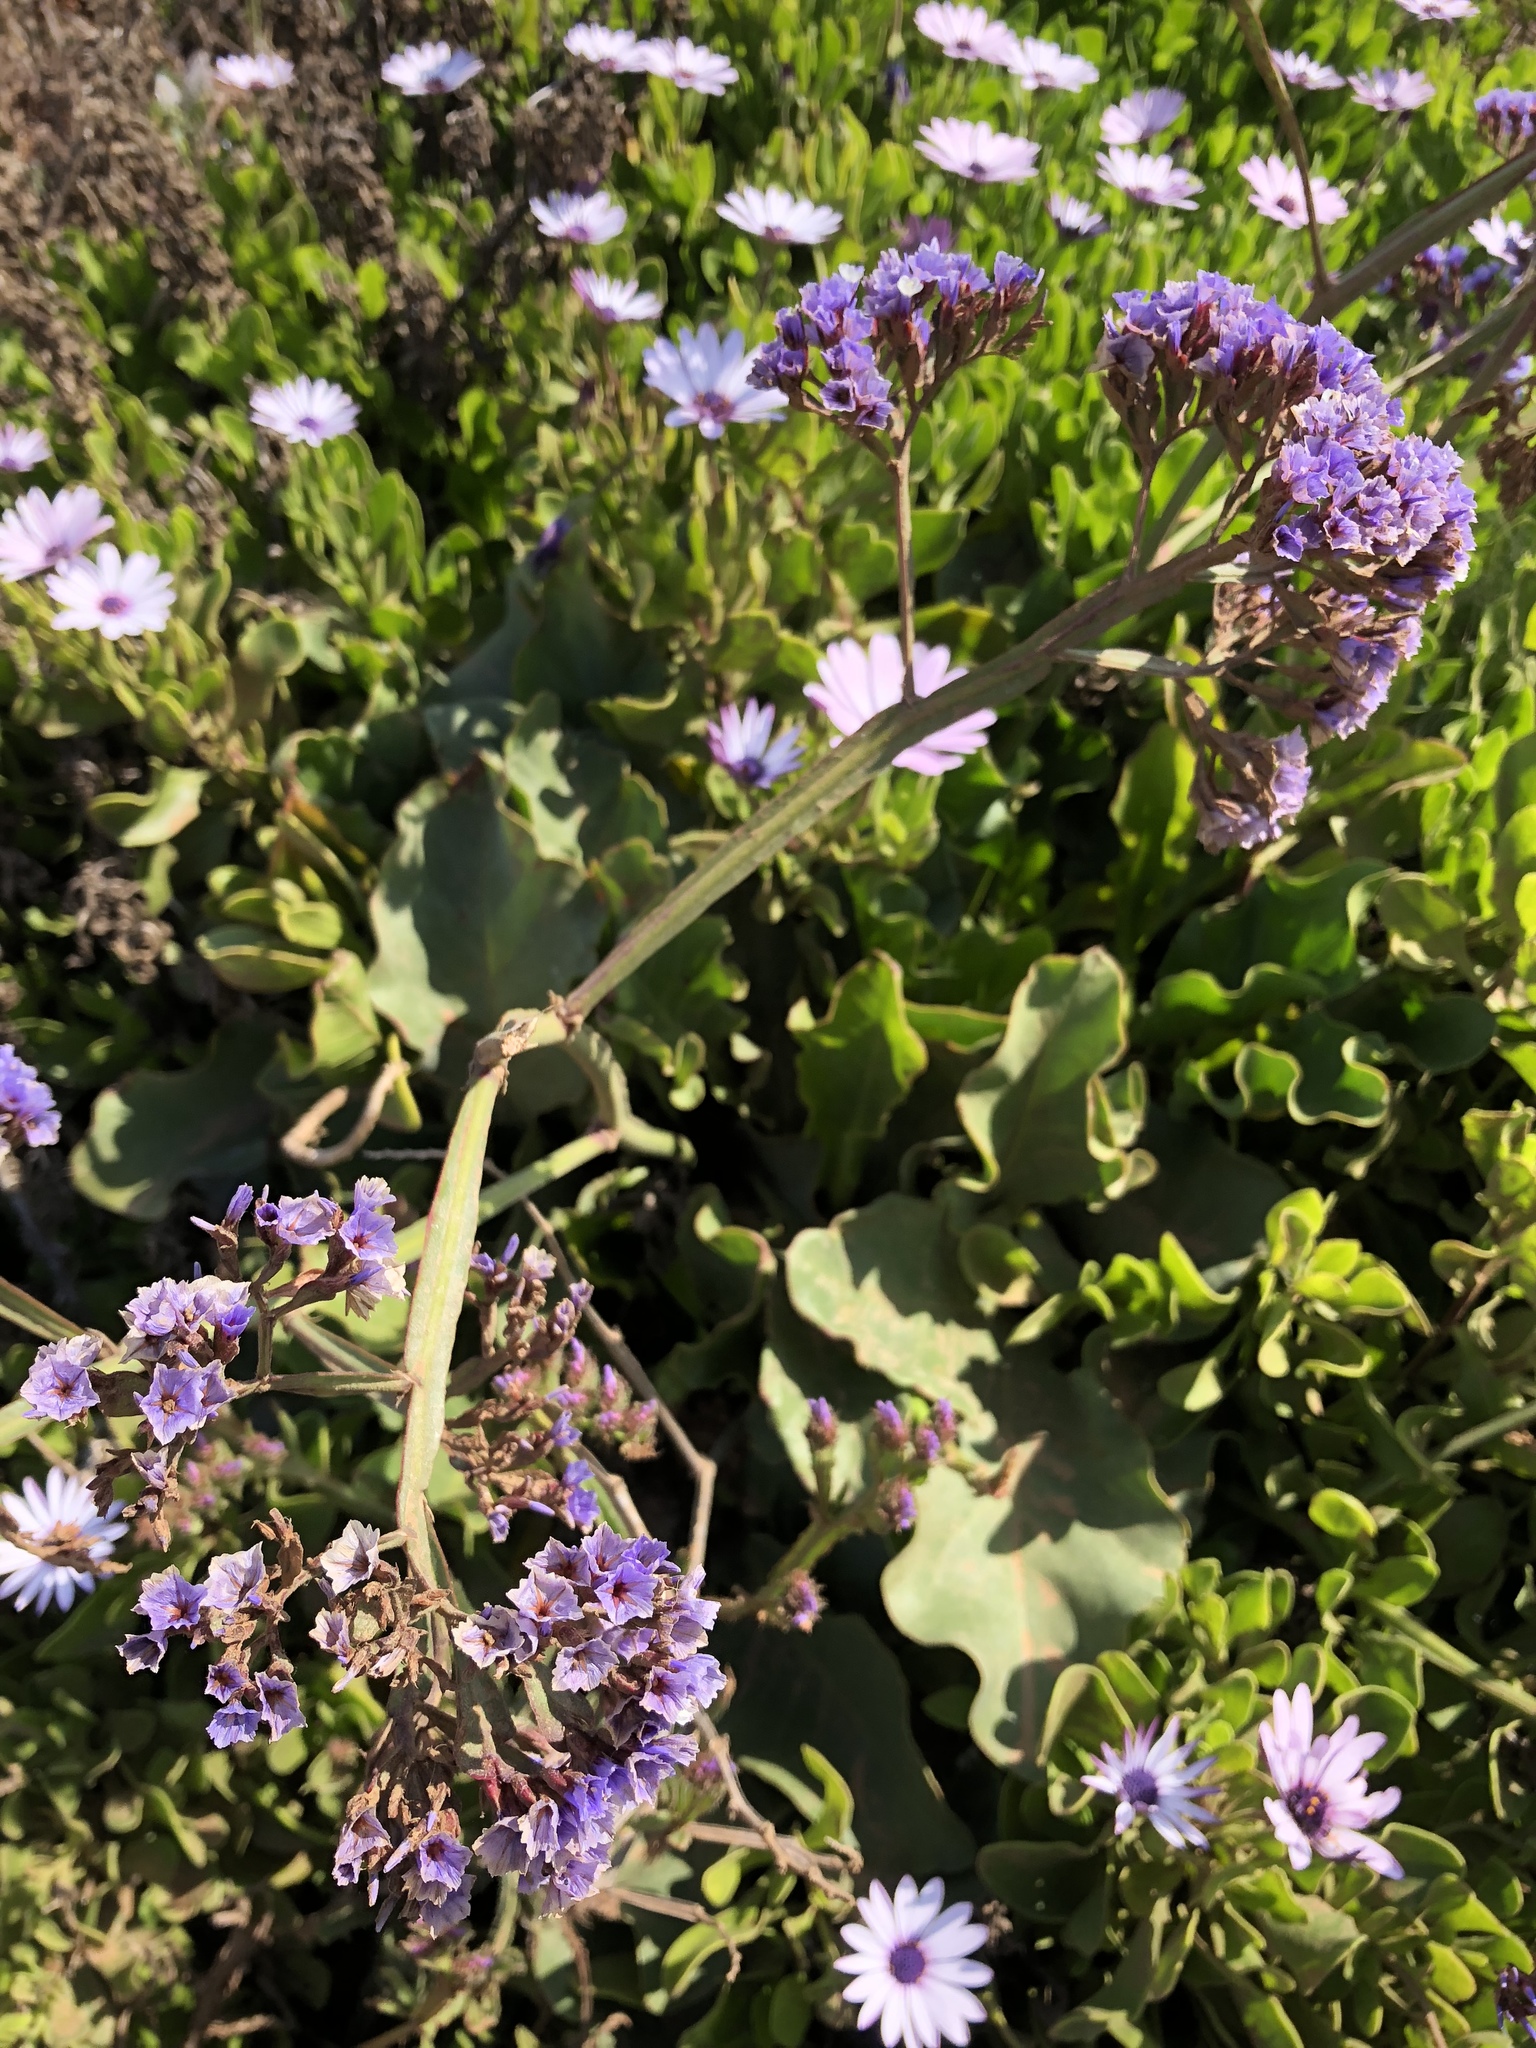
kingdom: Plantae
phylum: Tracheophyta
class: Magnoliopsida
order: Caryophyllales
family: Plumbaginaceae
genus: Limonium
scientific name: Limonium perezii
